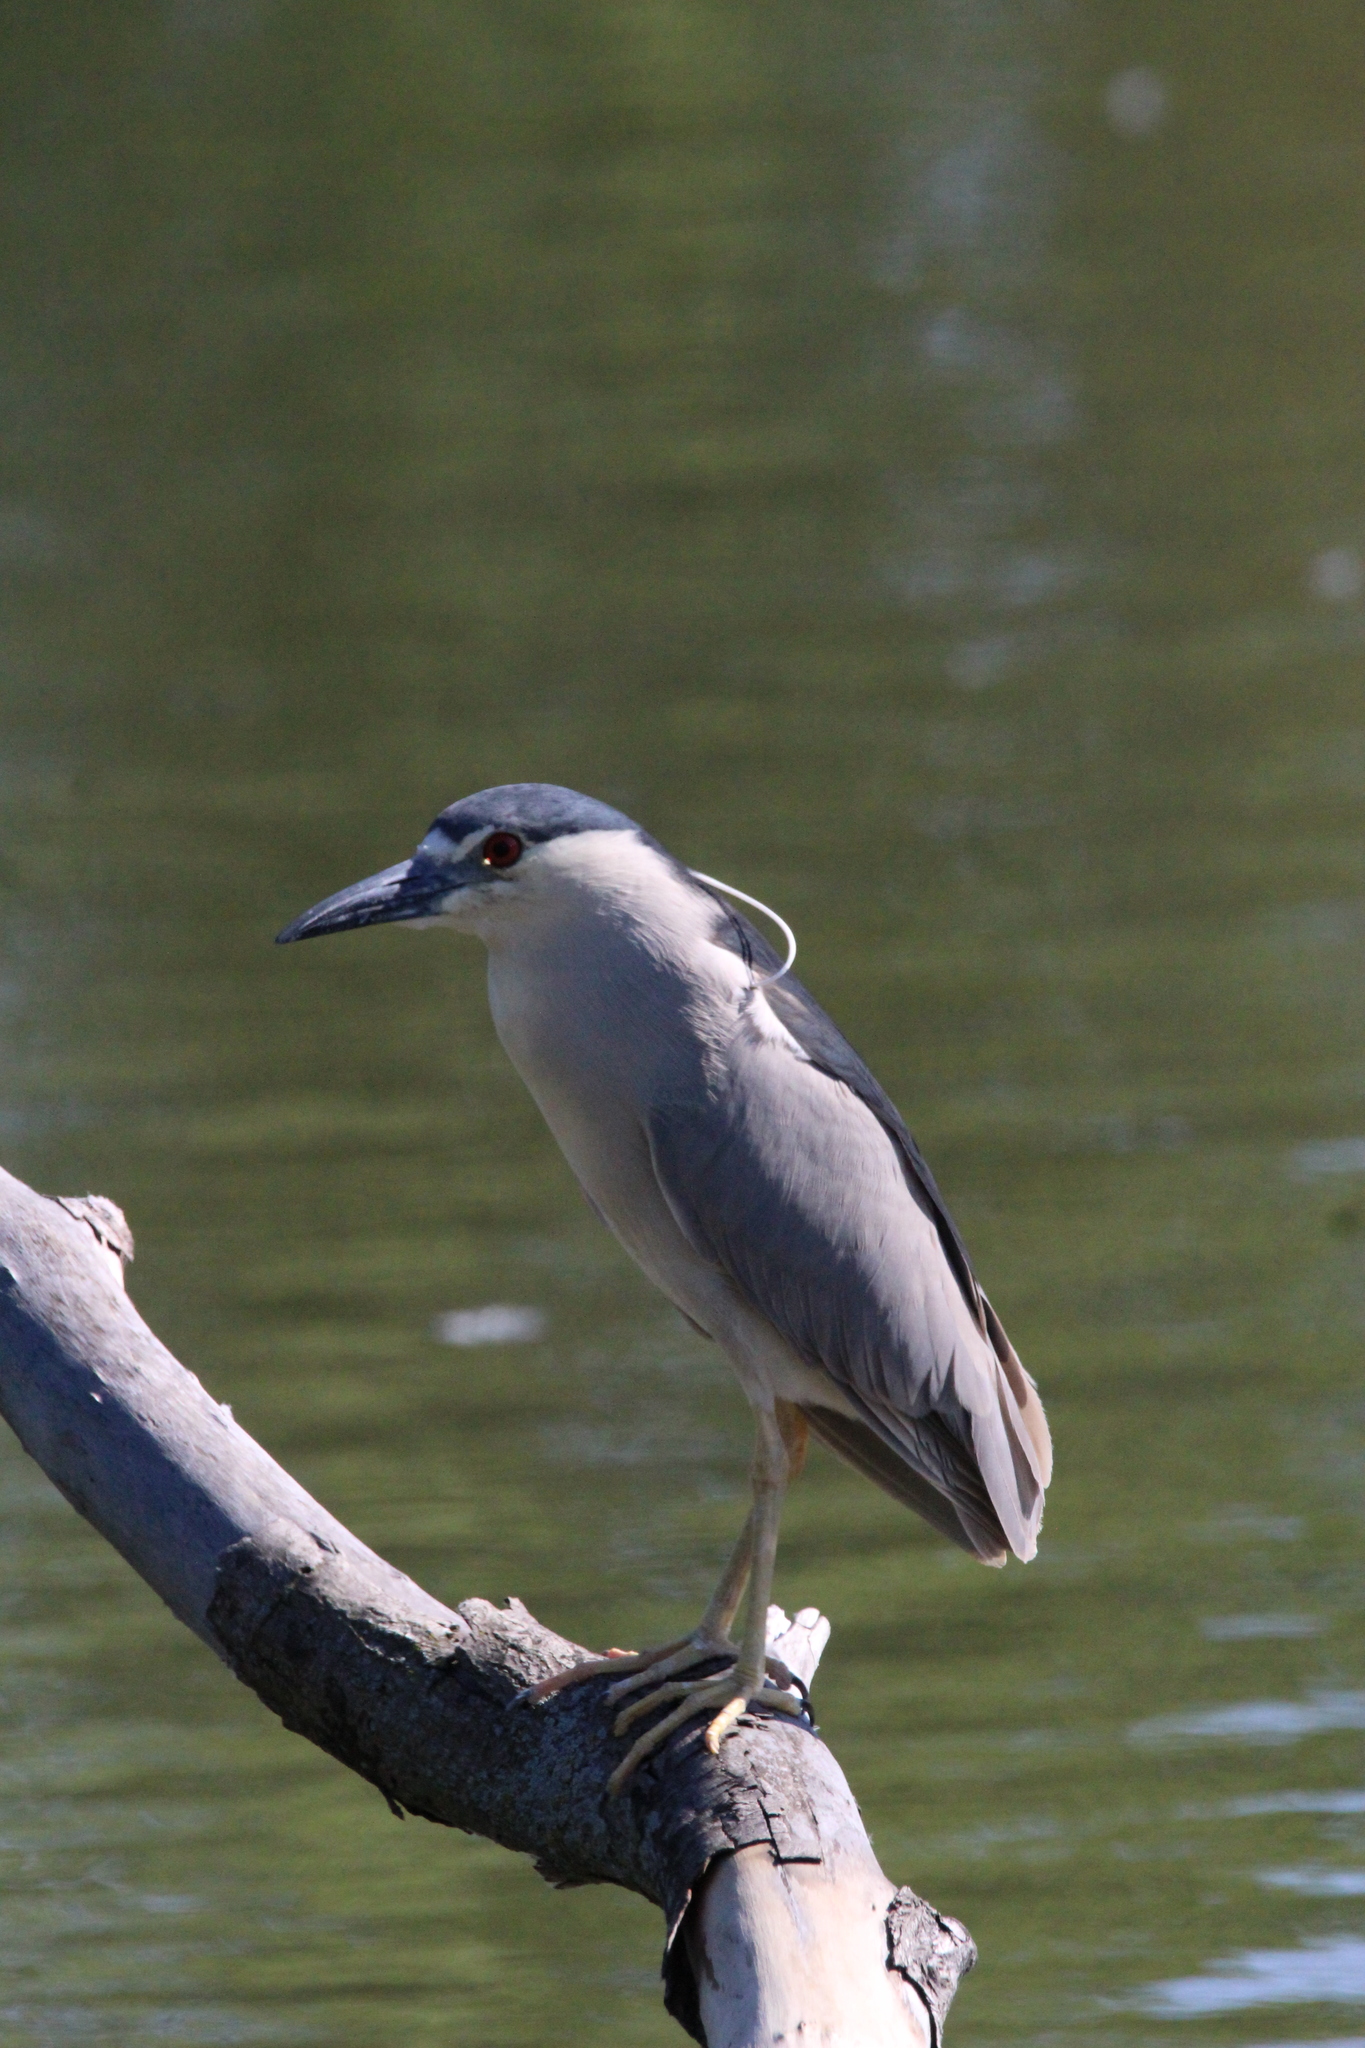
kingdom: Animalia
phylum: Chordata
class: Aves
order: Pelecaniformes
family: Ardeidae
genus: Nycticorax
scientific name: Nycticorax nycticorax
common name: Black-crowned night heron
